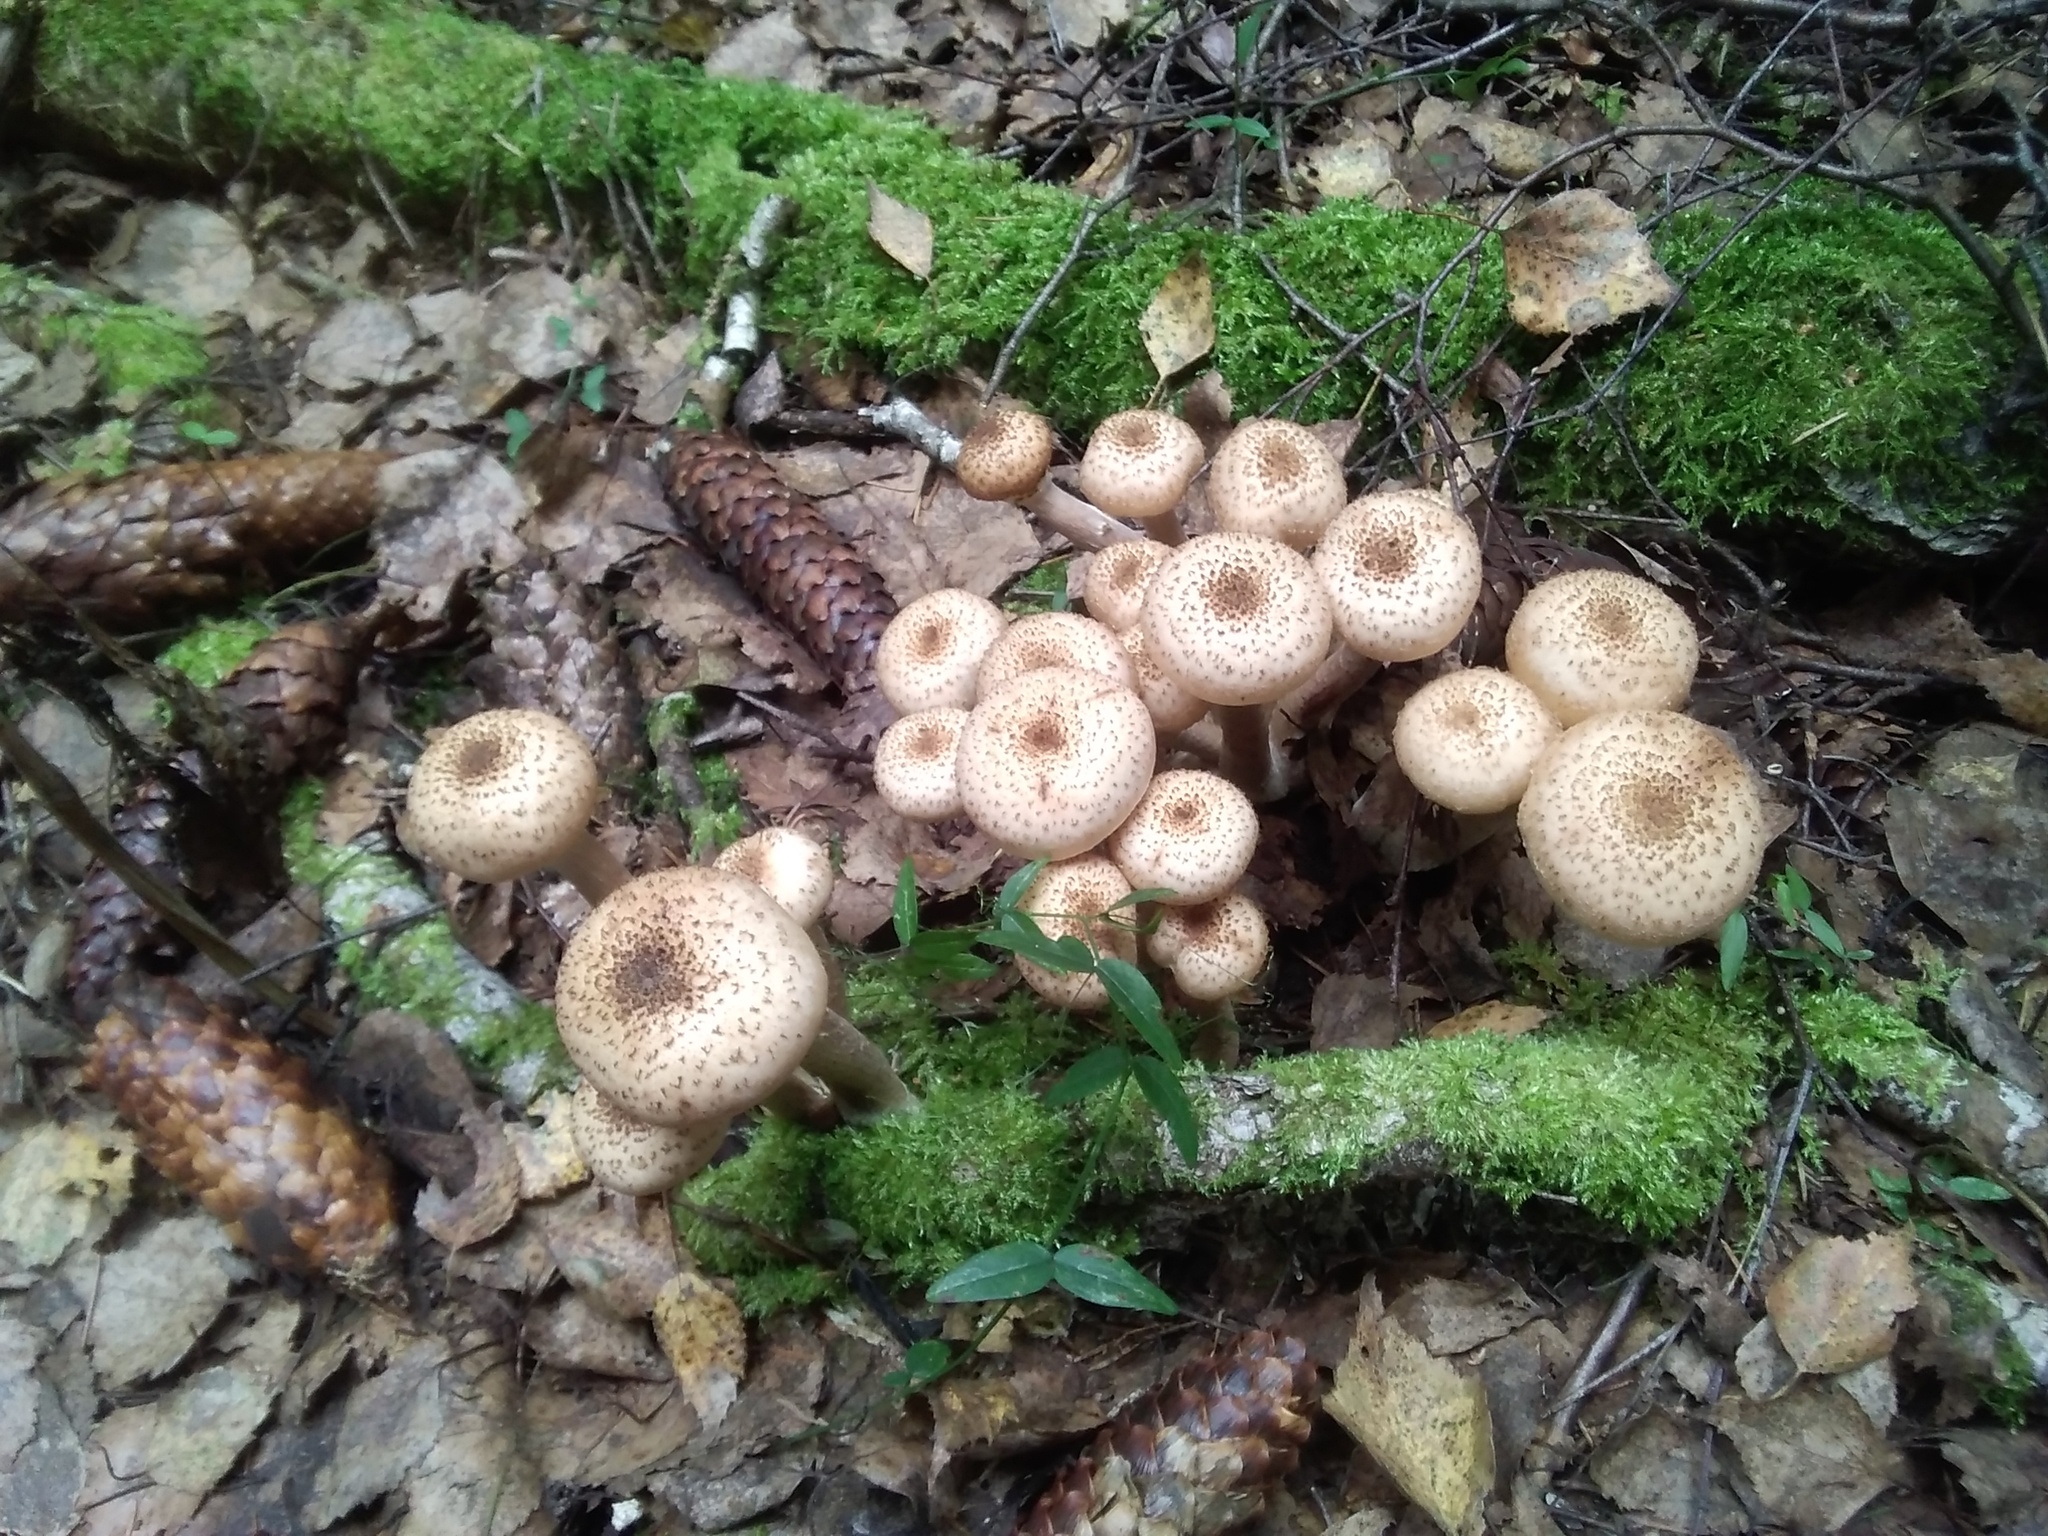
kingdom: Fungi
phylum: Basidiomycota
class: Agaricomycetes
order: Agaricales
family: Physalacriaceae
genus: Armillaria
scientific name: Armillaria mellea
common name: Honey fungus
